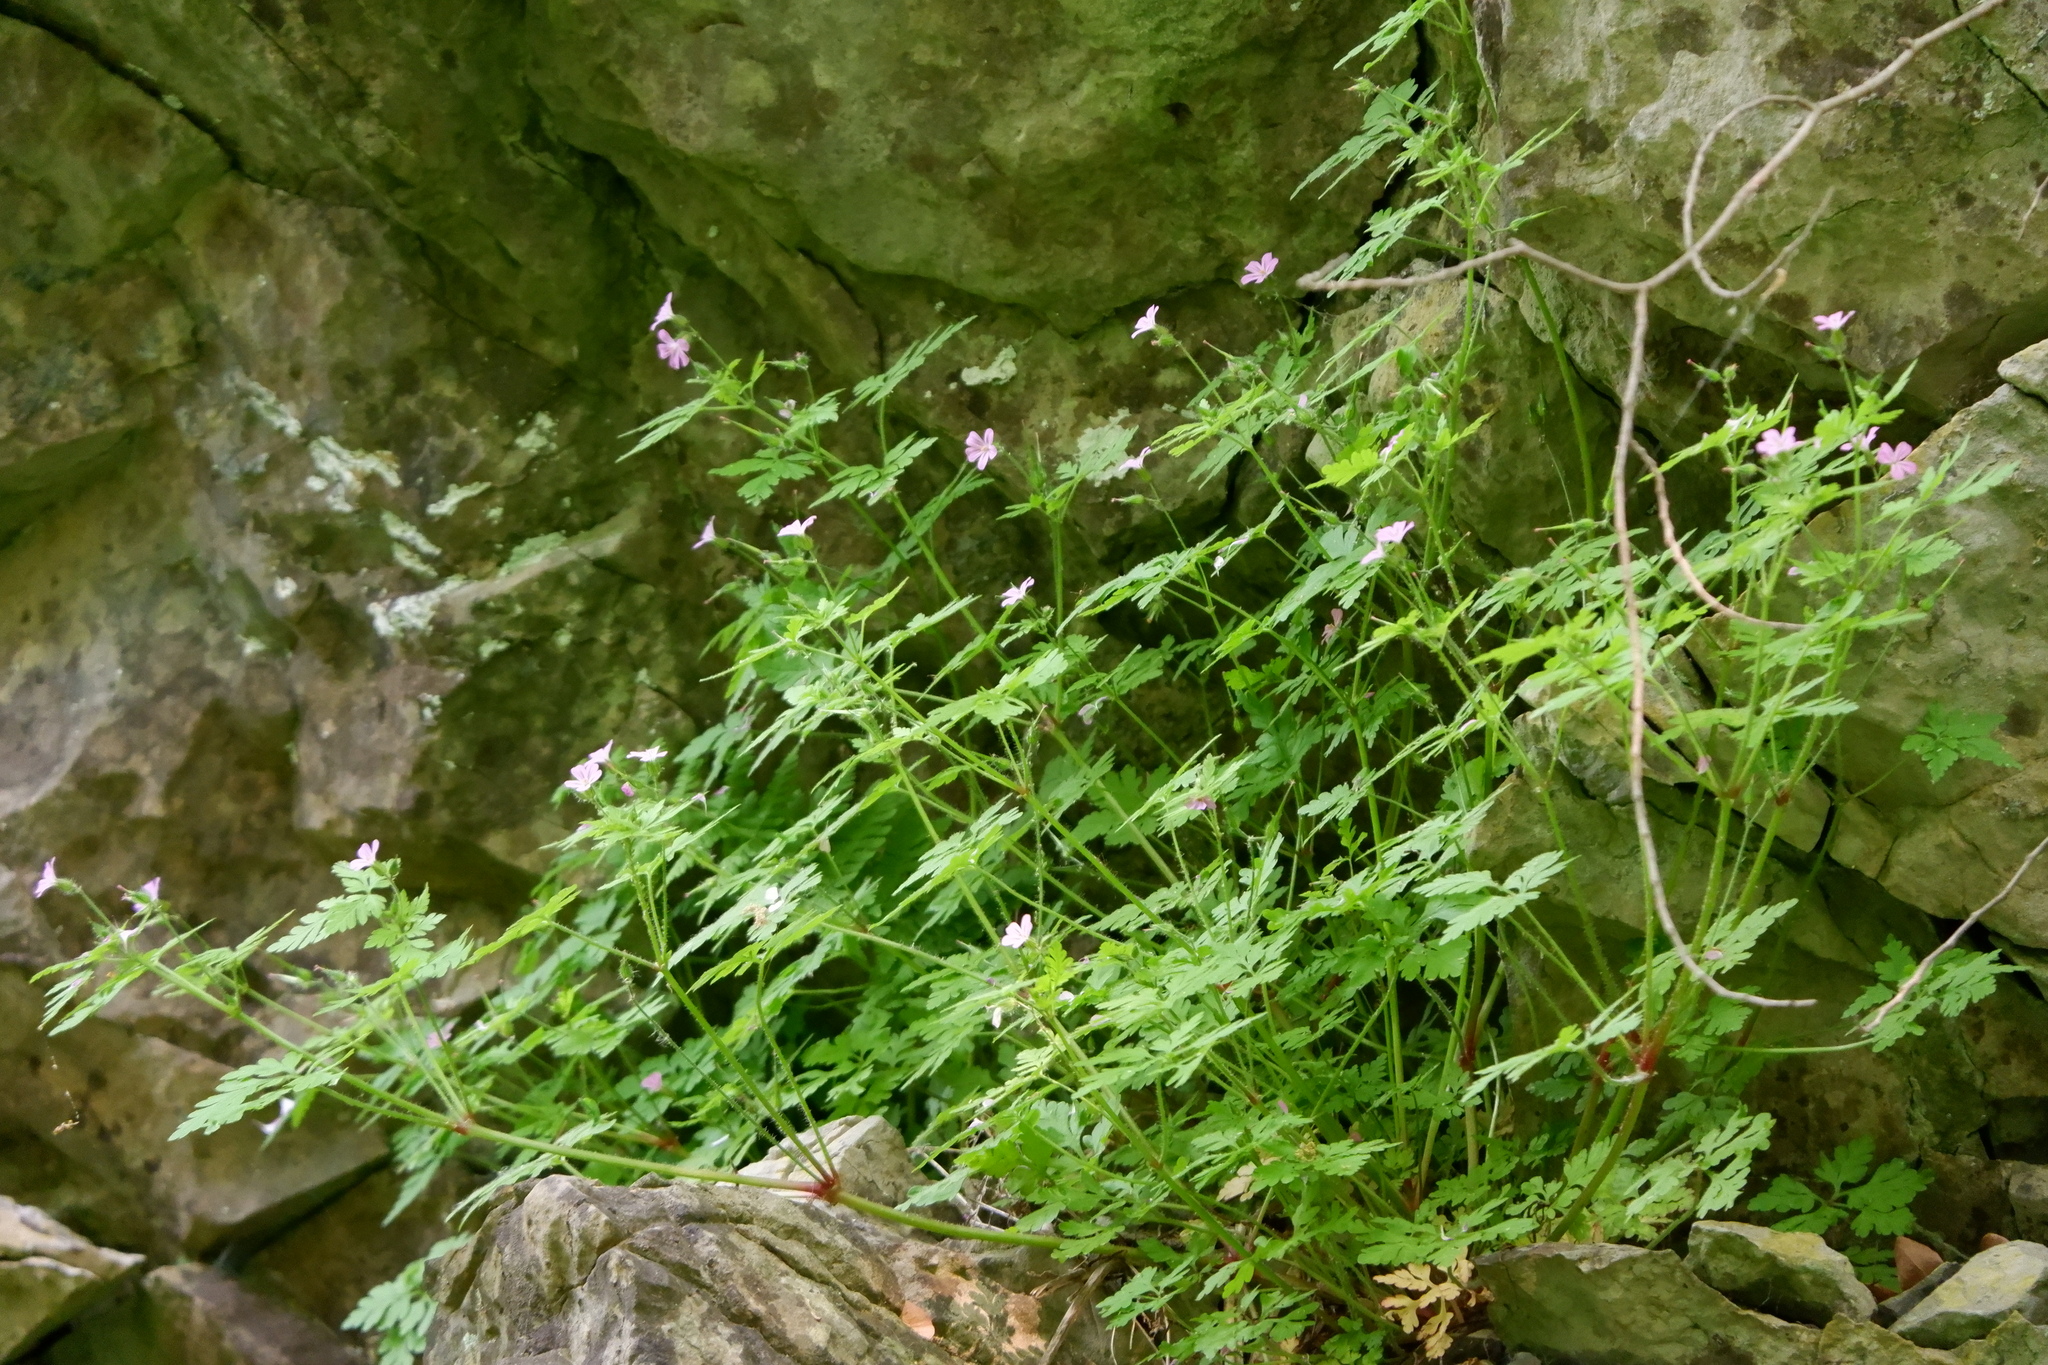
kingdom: Plantae
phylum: Tracheophyta
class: Magnoliopsida
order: Geraniales
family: Geraniaceae
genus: Geranium
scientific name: Geranium robertianum
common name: Herb-robert
